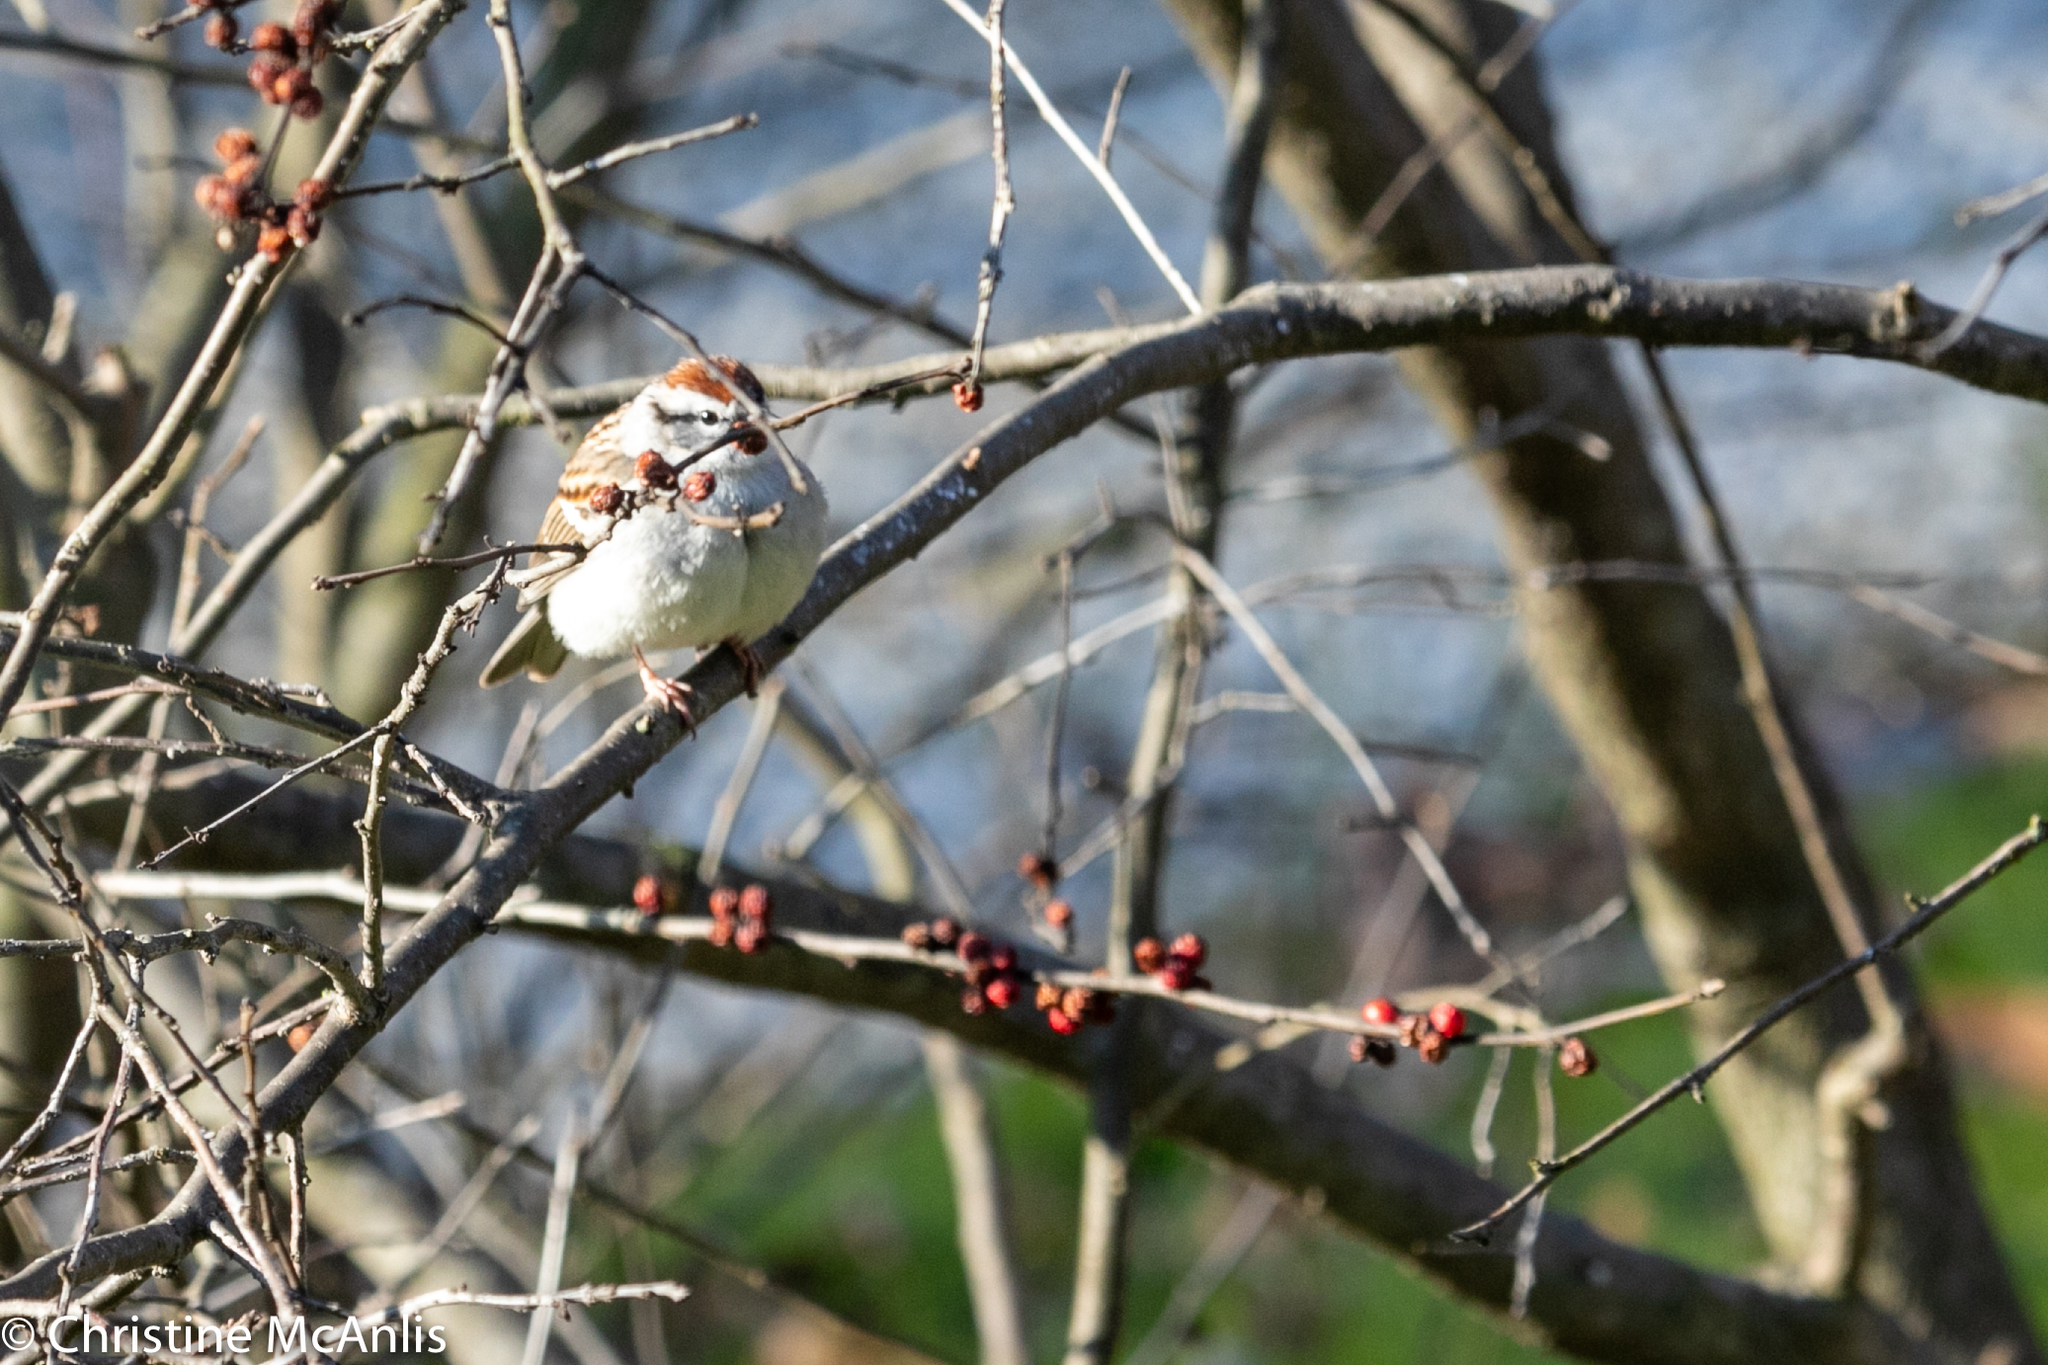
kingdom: Animalia
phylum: Chordata
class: Aves
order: Passeriformes
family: Passerellidae
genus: Spizella
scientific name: Spizella passerina
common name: Chipping sparrow
